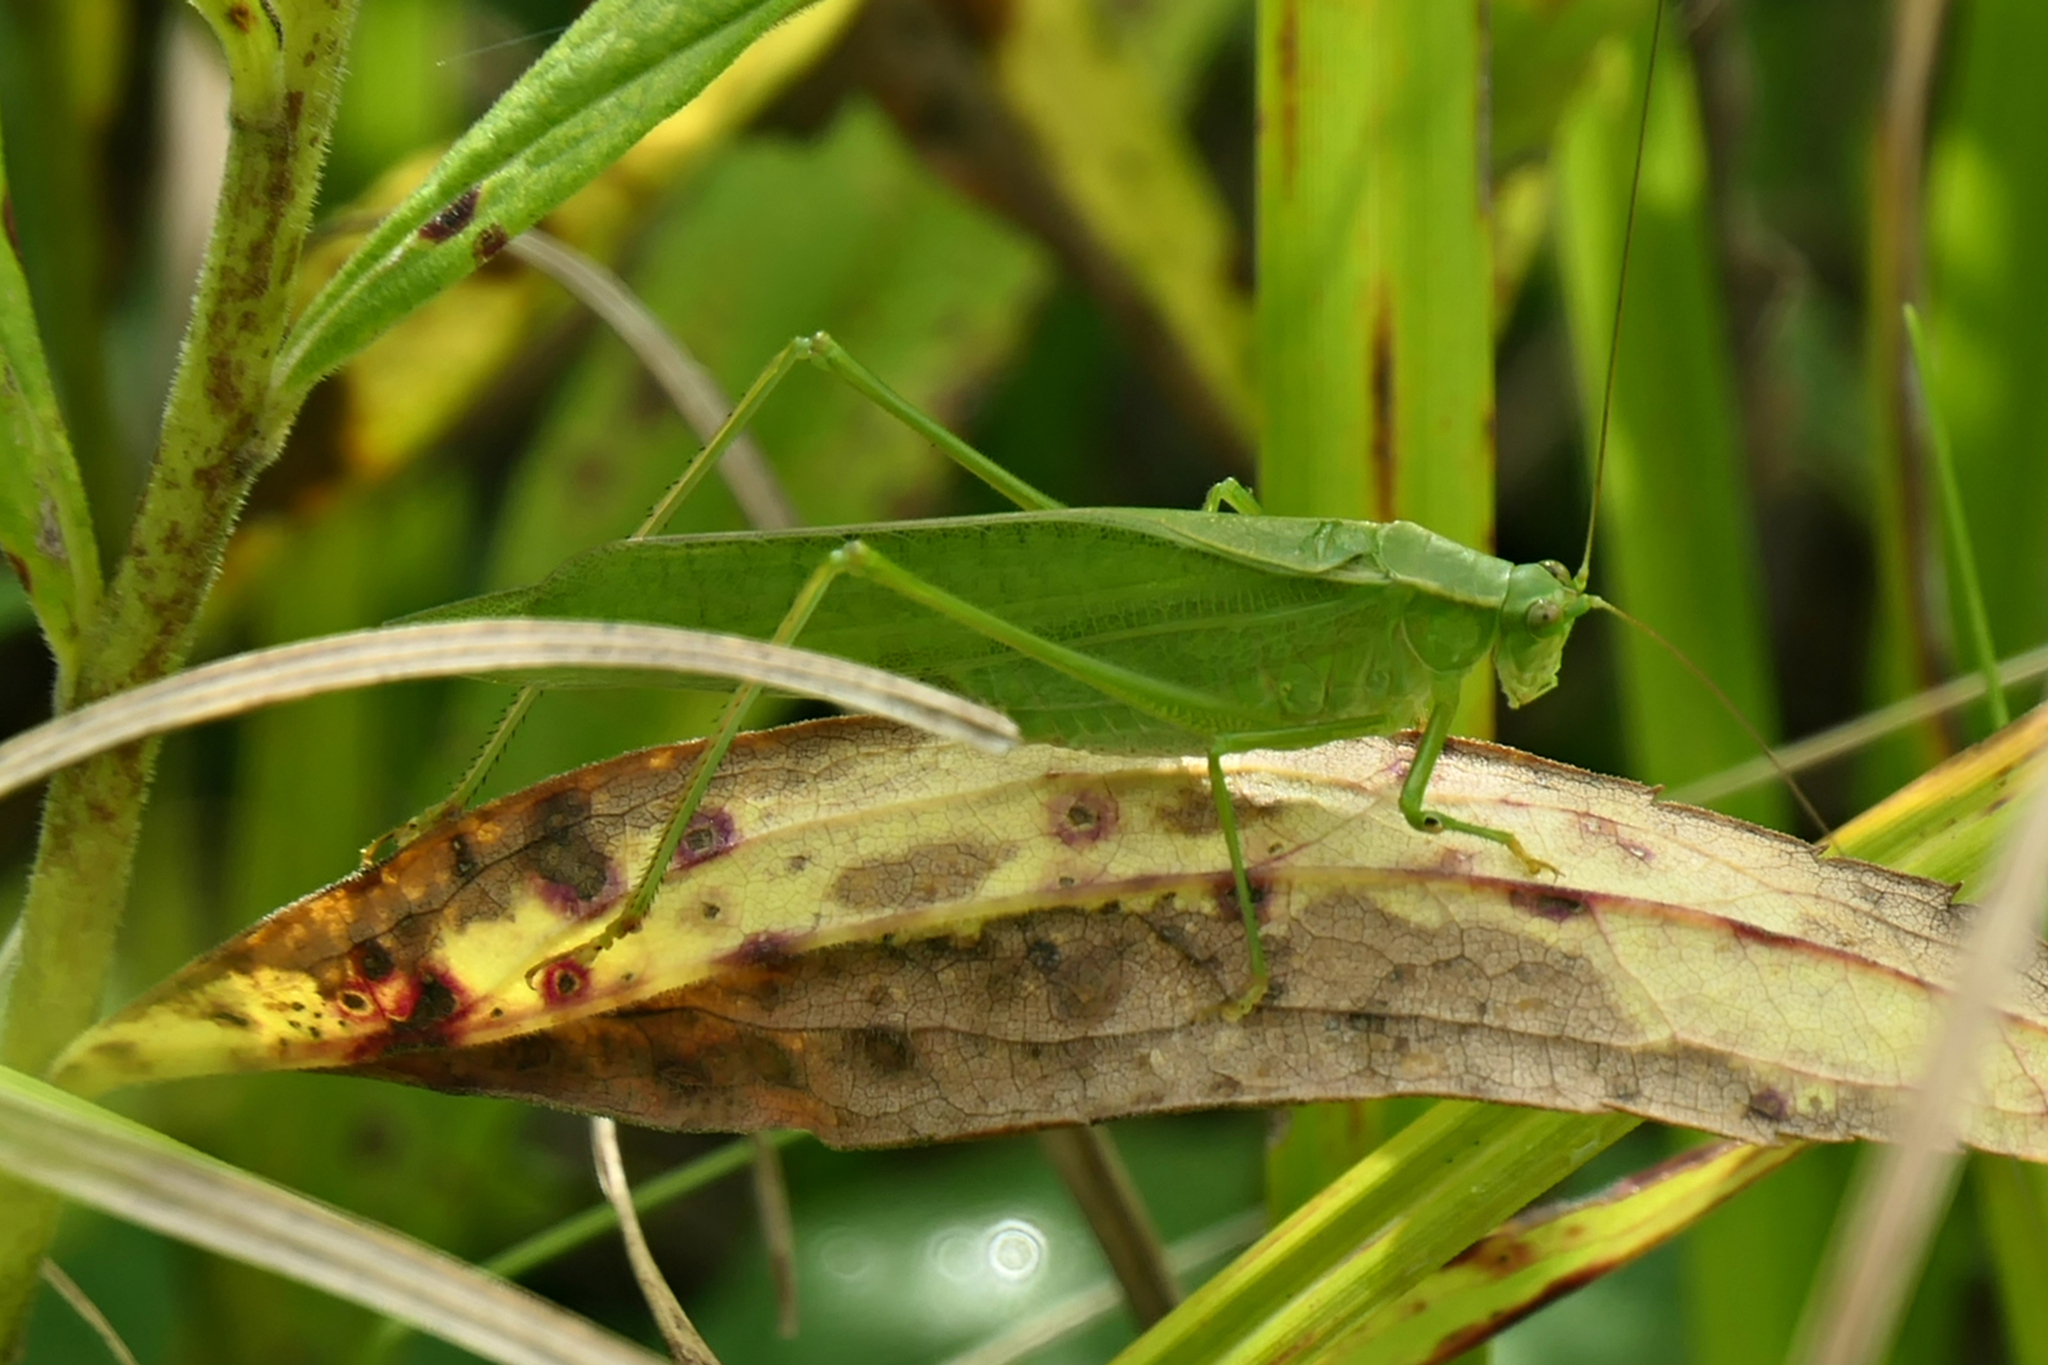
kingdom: Animalia
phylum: Arthropoda
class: Insecta
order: Orthoptera
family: Tettigoniidae
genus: Scudderia
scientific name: Scudderia pistillata
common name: Broad-winged bush-katydid
